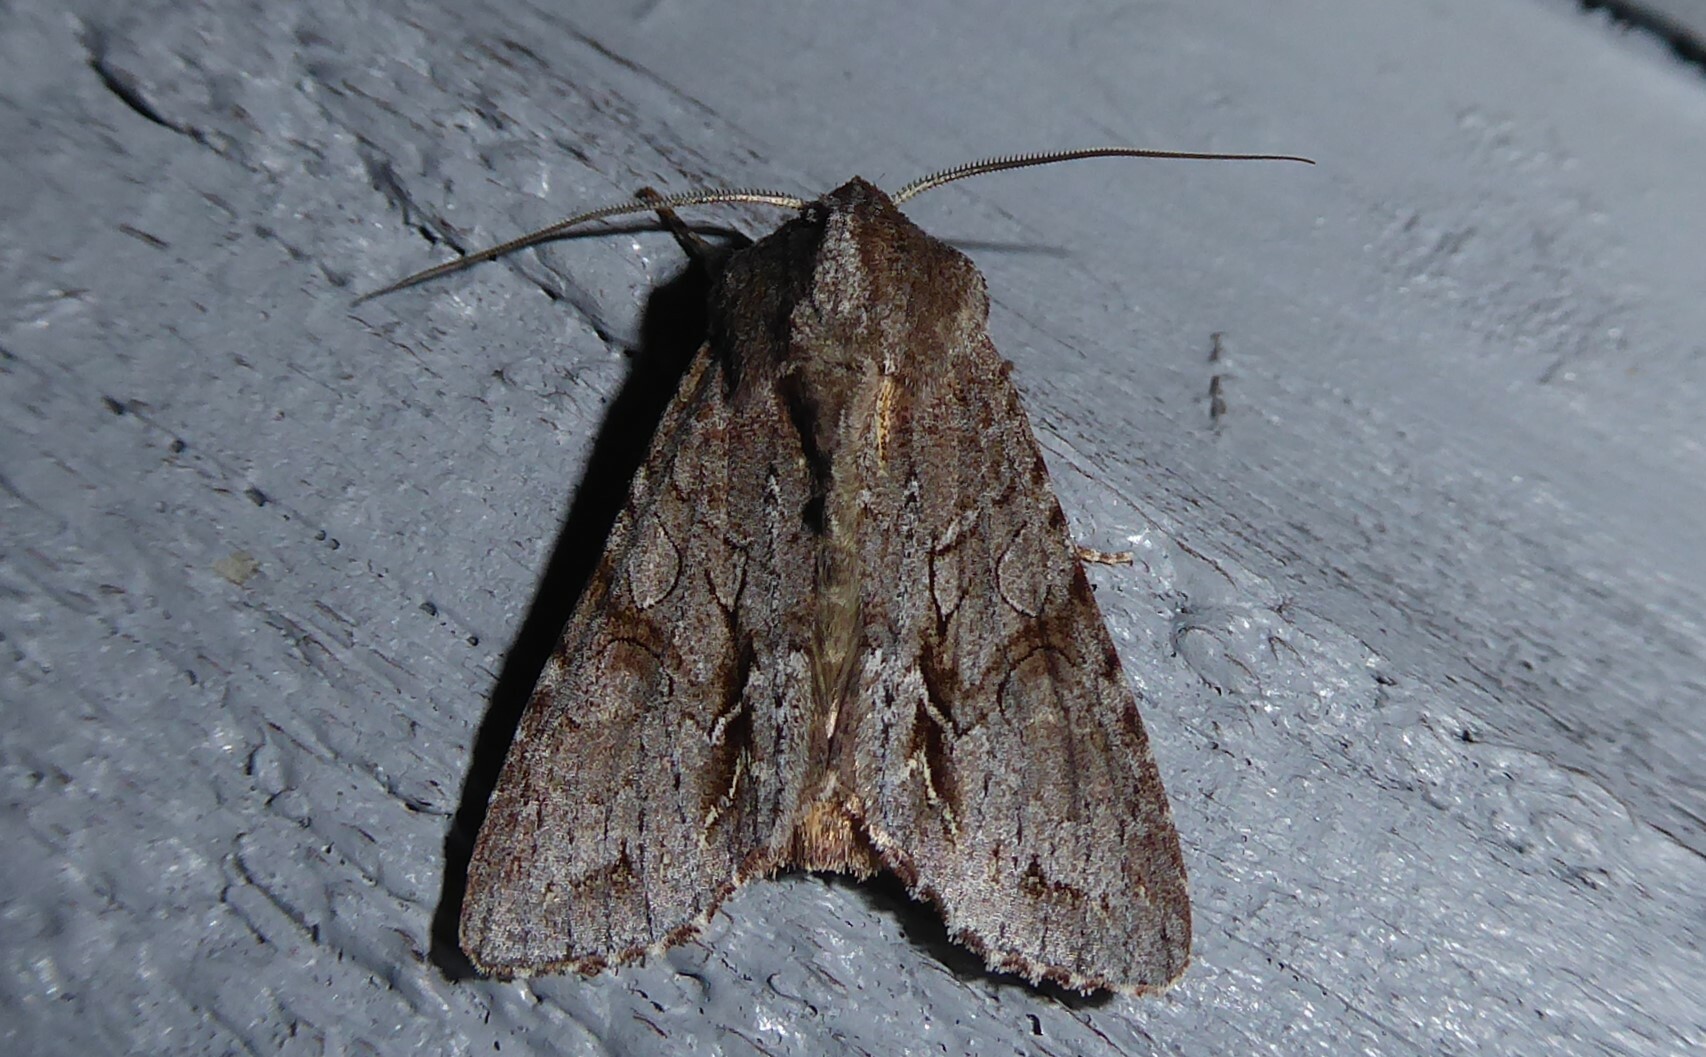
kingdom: Animalia
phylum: Arthropoda
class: Insecta
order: Lepidoptera
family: Noctuidae
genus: Ichneutica
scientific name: Ichneutica
